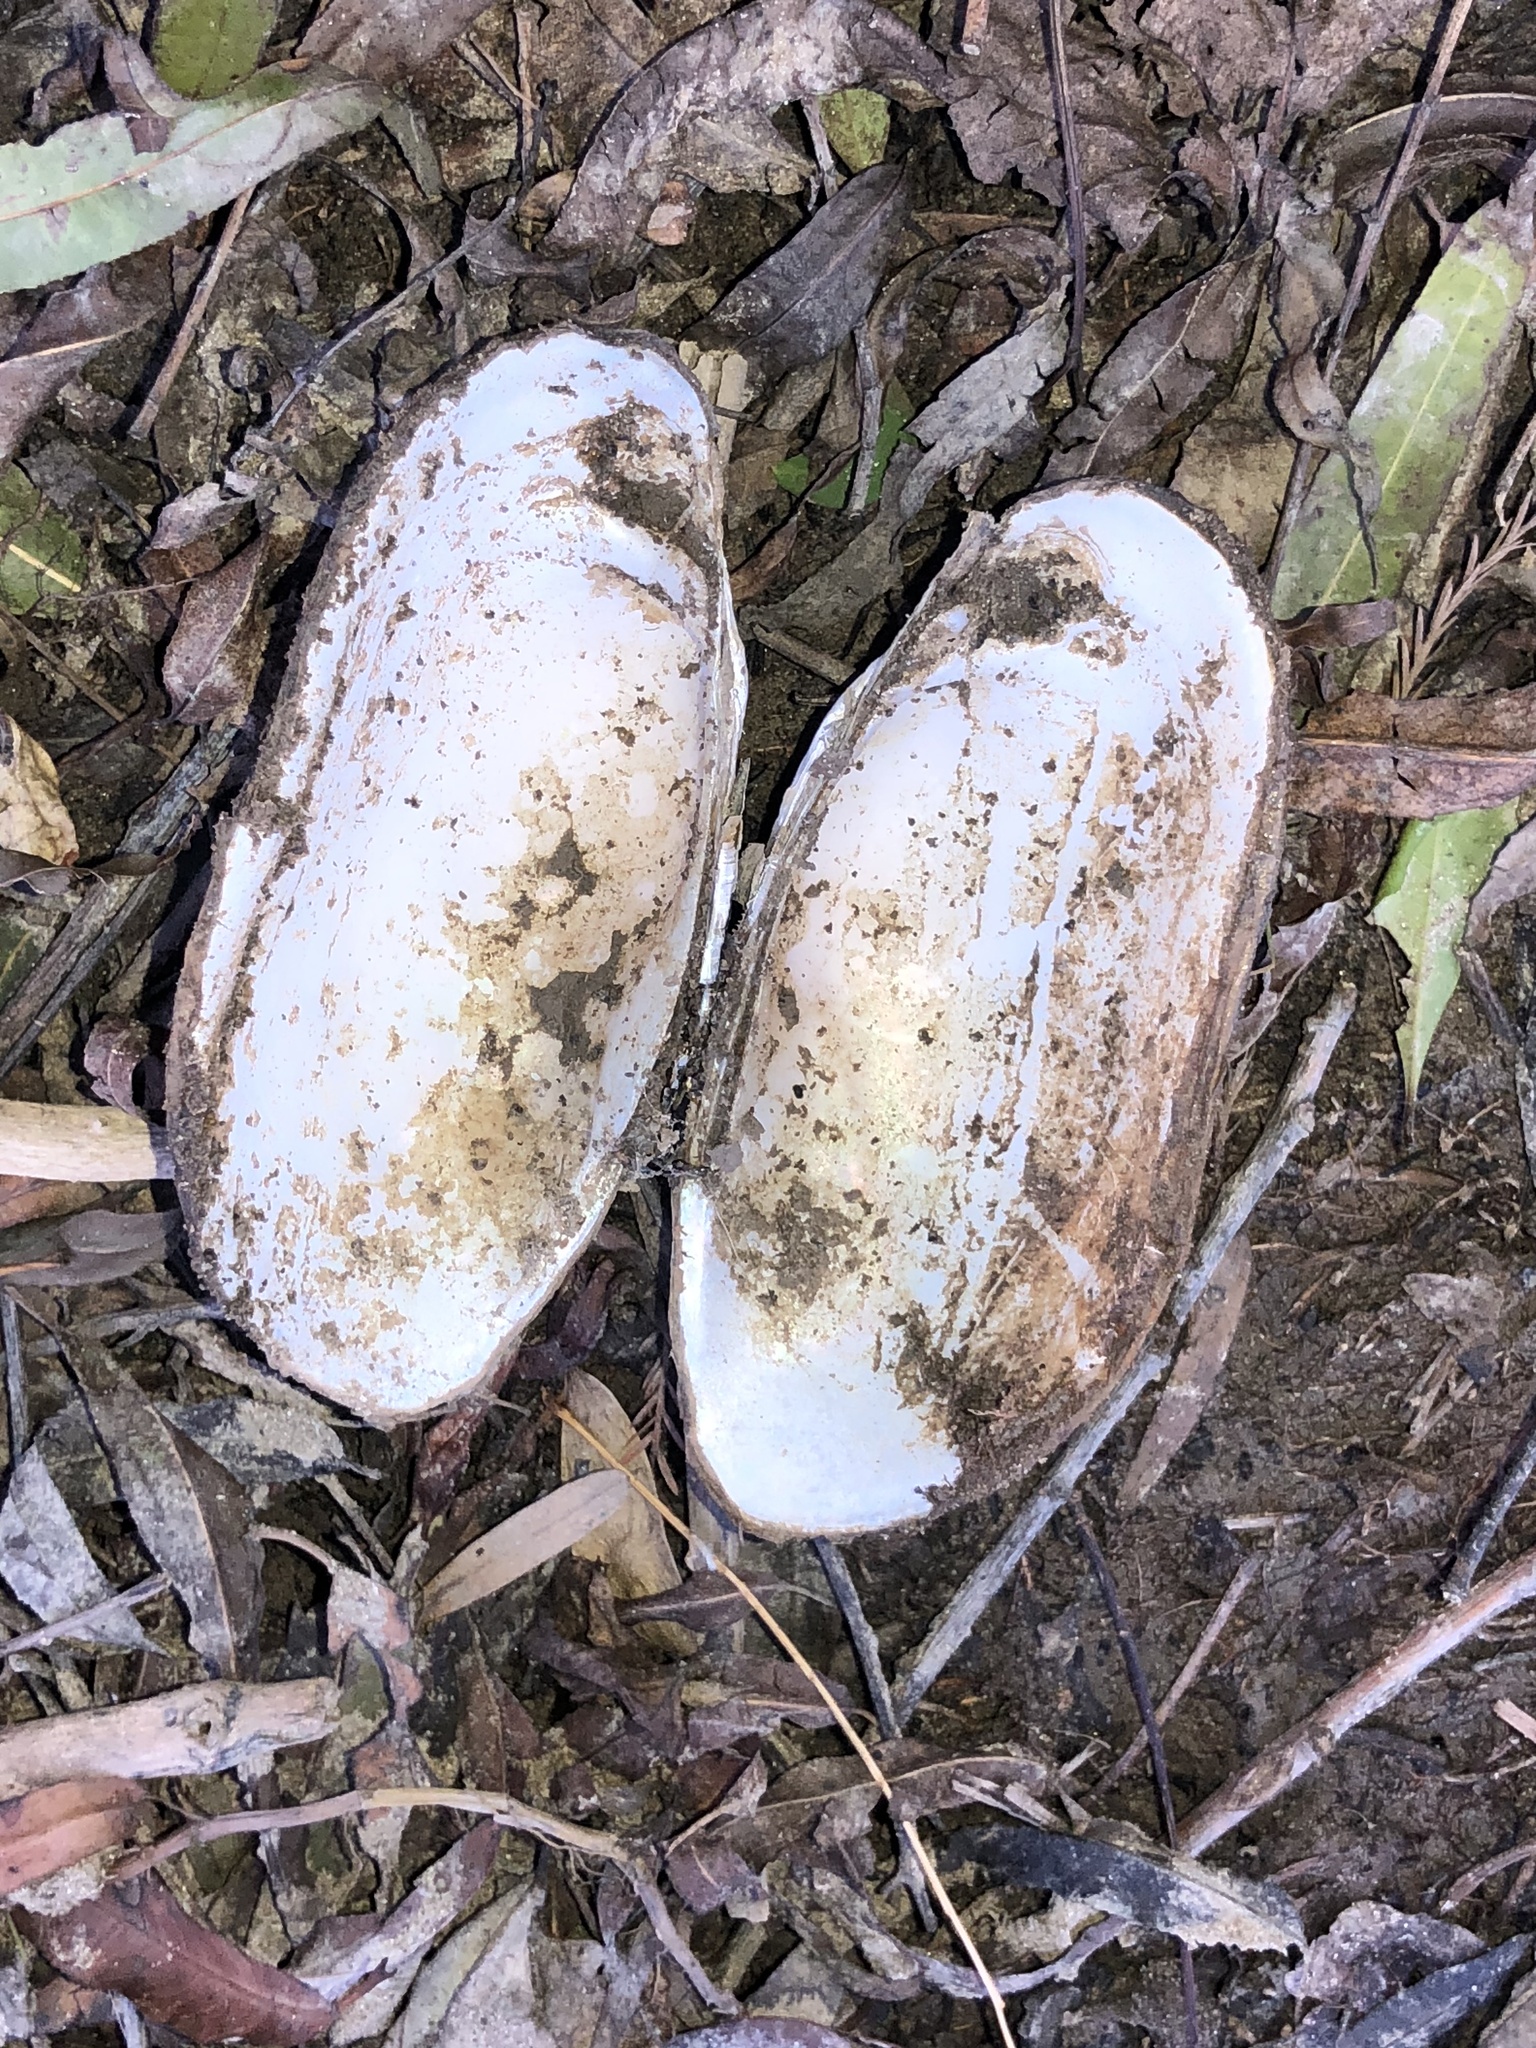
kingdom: Animalia
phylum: Mollusca
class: Bivalvia
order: Unionida
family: Unionidae
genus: Lampsilis
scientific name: Lampsilis teres
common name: Yellow sandshell
